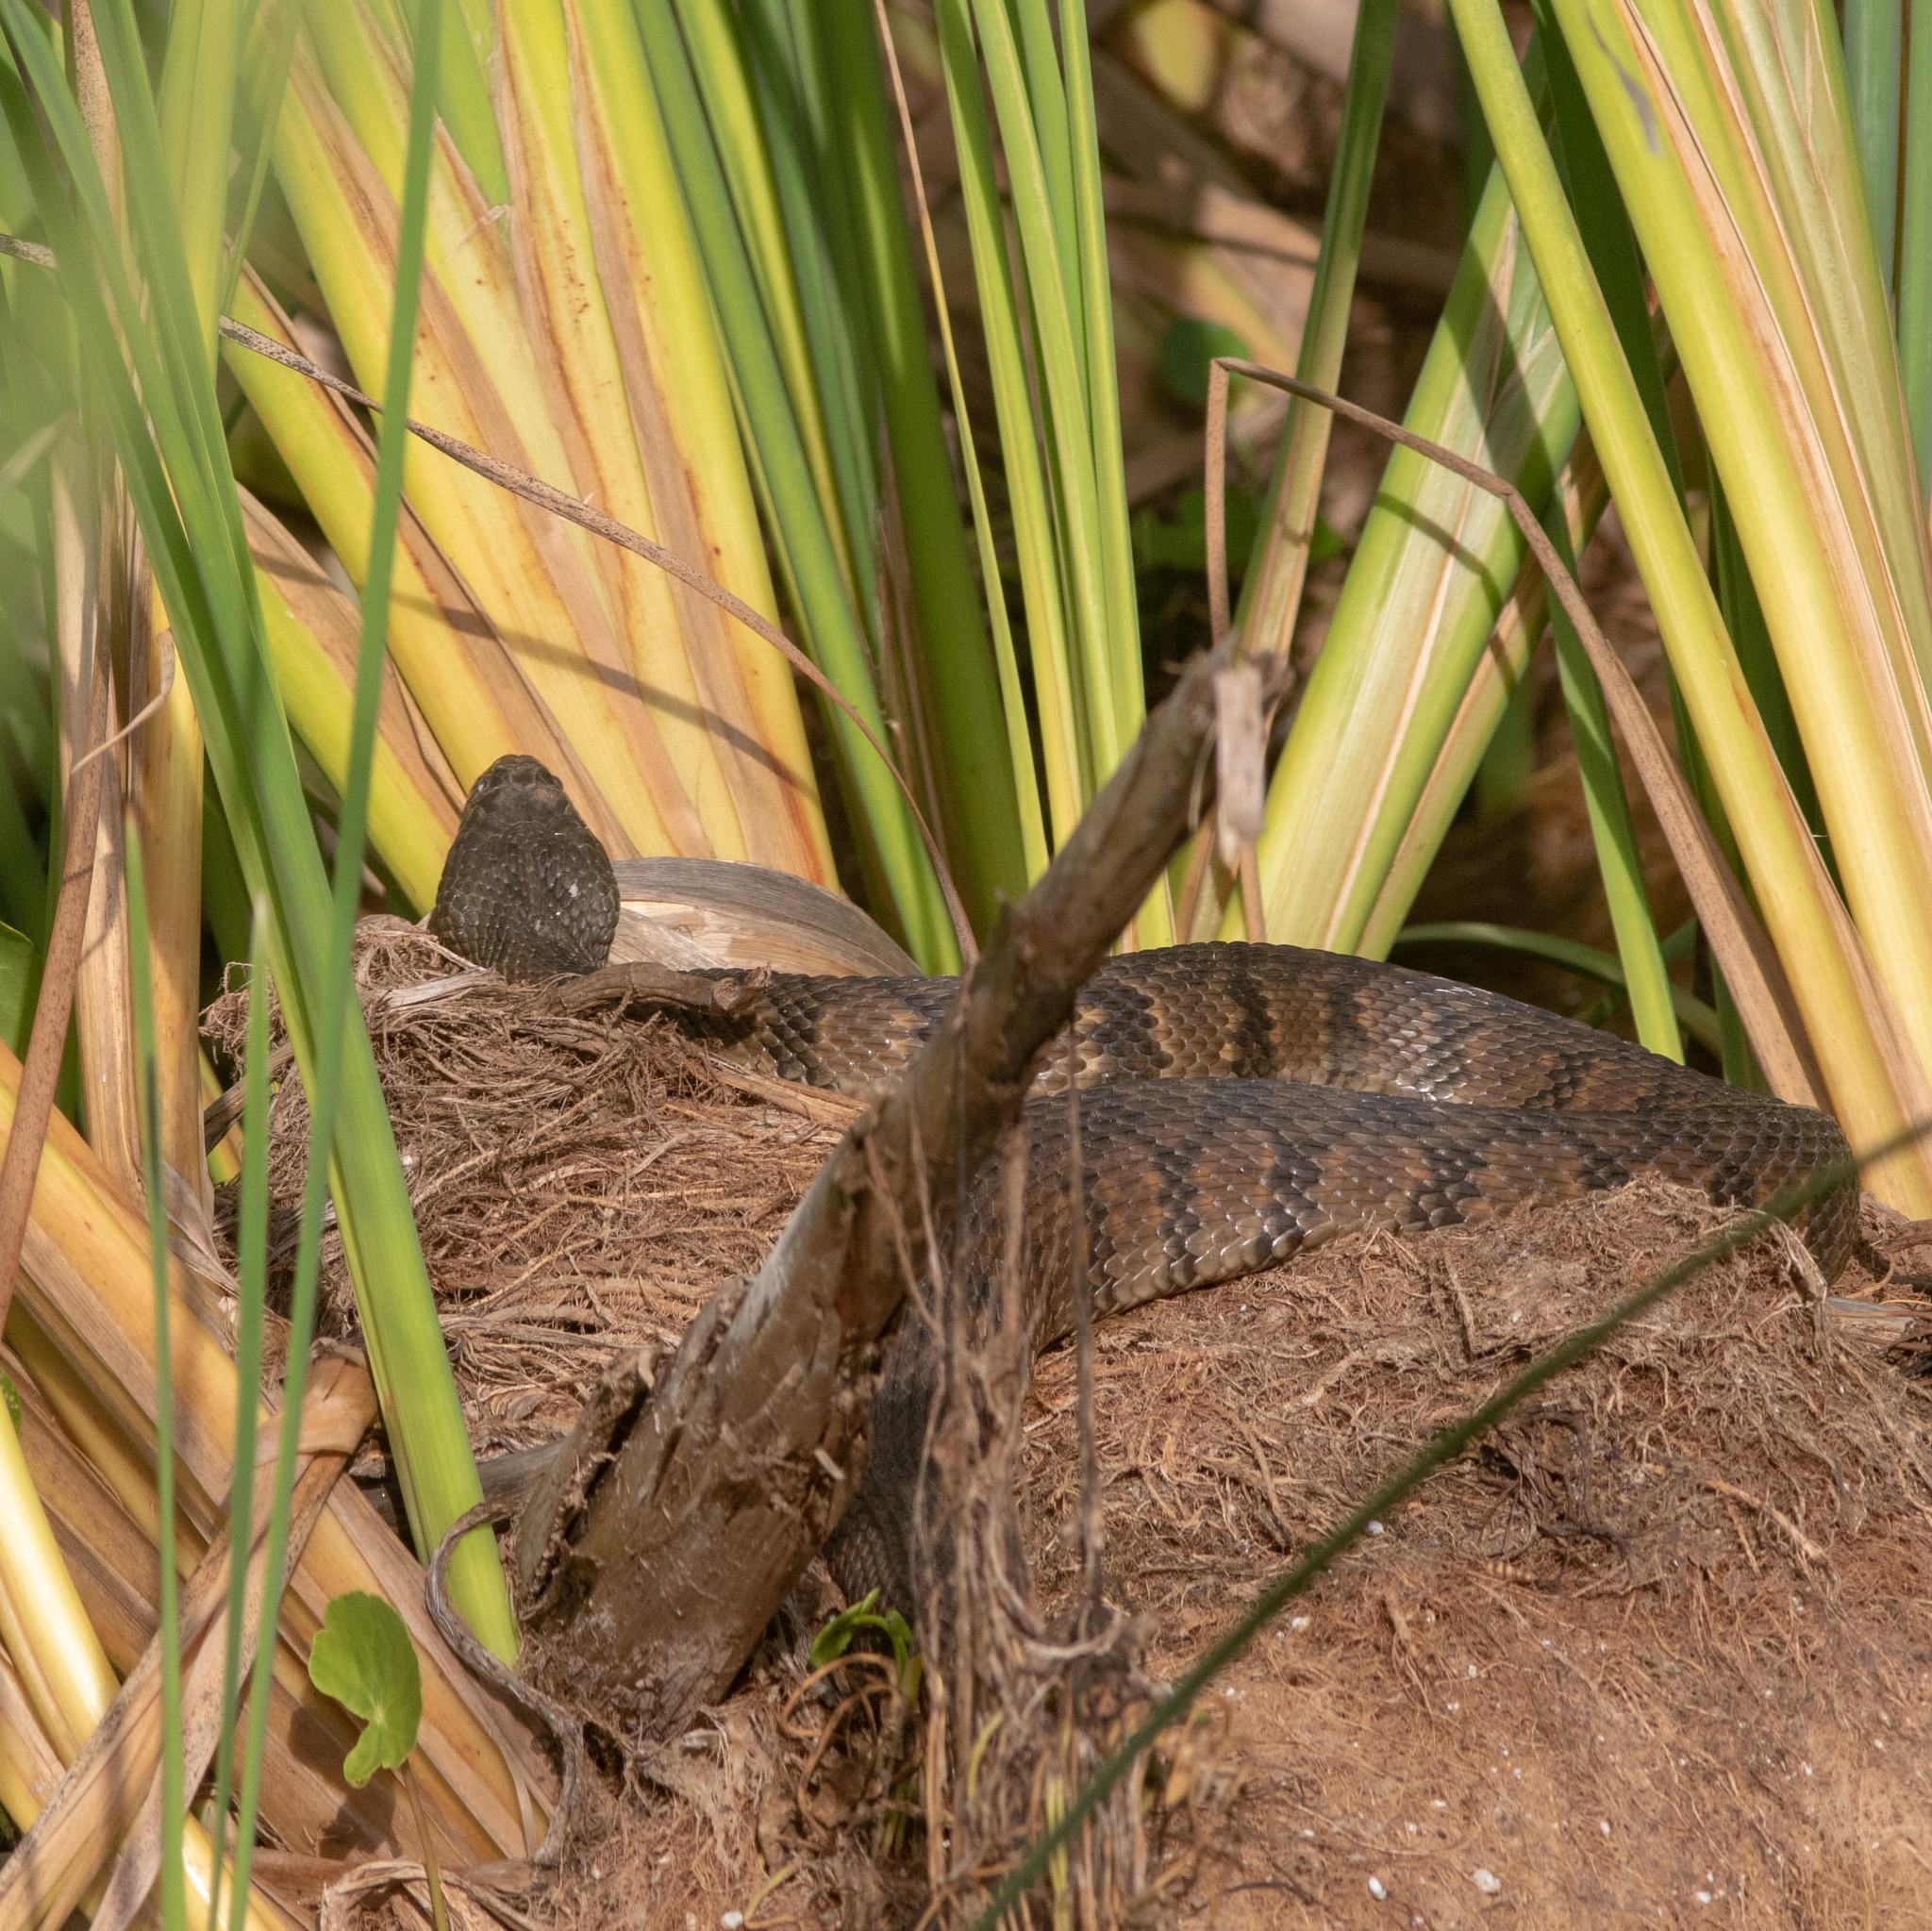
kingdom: Animalia
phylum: Chordata
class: Squamata
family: Colubridae
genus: Nerodia
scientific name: Nerodia rhombifer
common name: Diamondback water snake
